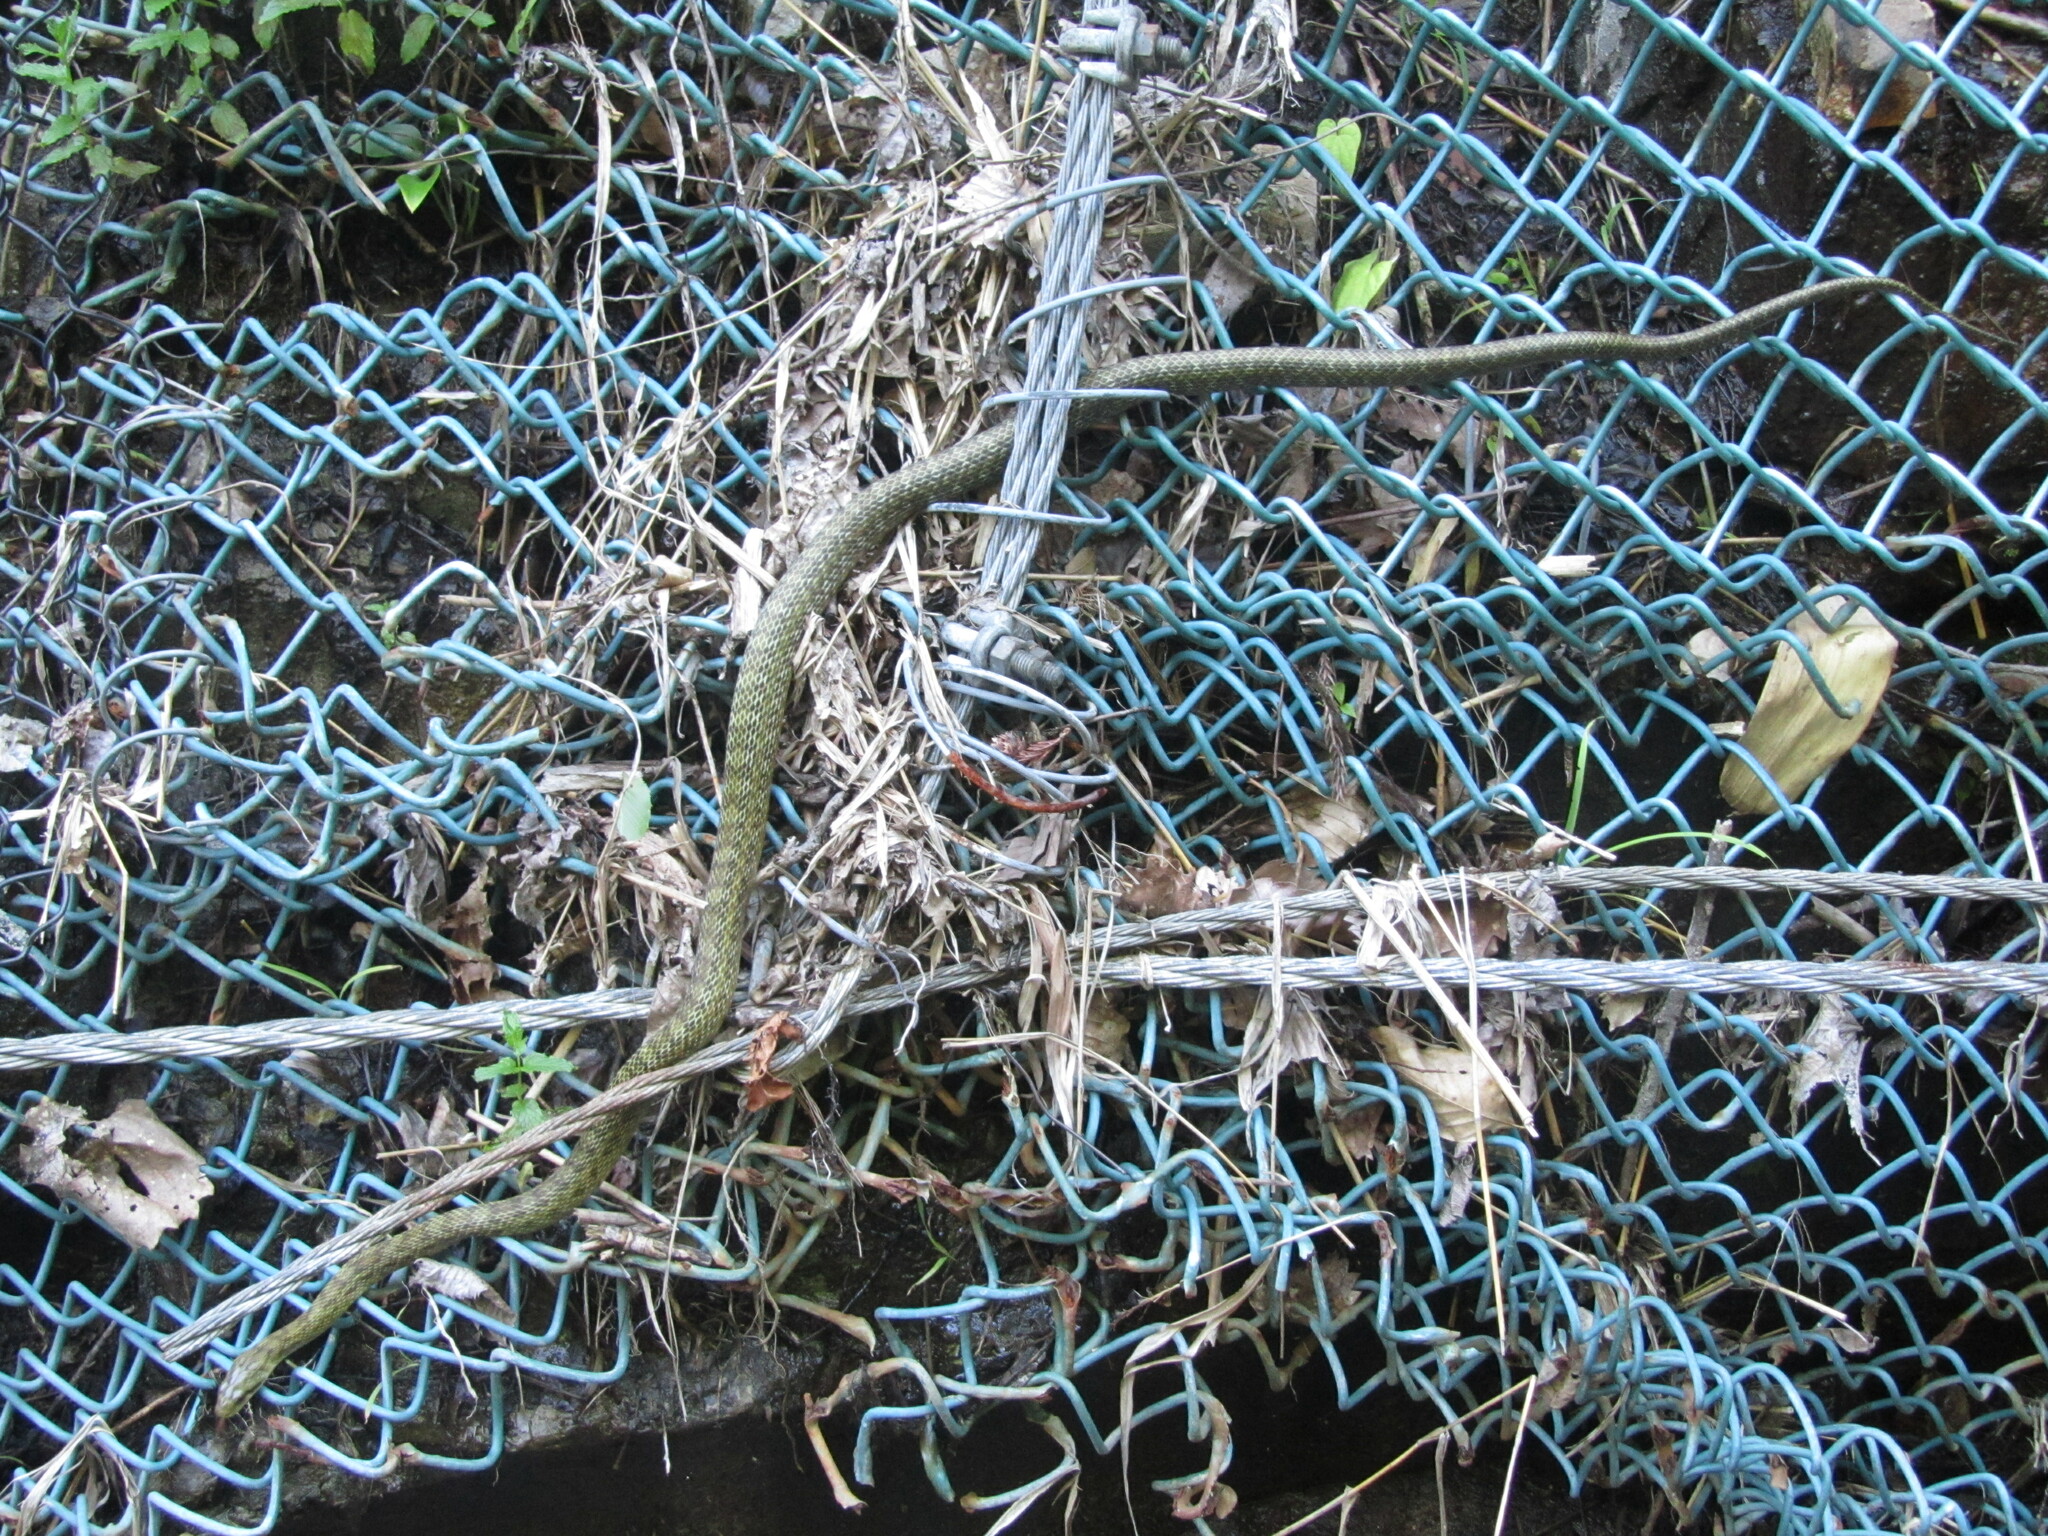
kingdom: Animalia
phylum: Chordata
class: Squamata
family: Colubridae
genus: Elaphe
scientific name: Elaphe climacophora
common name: Japanese ratsnake
